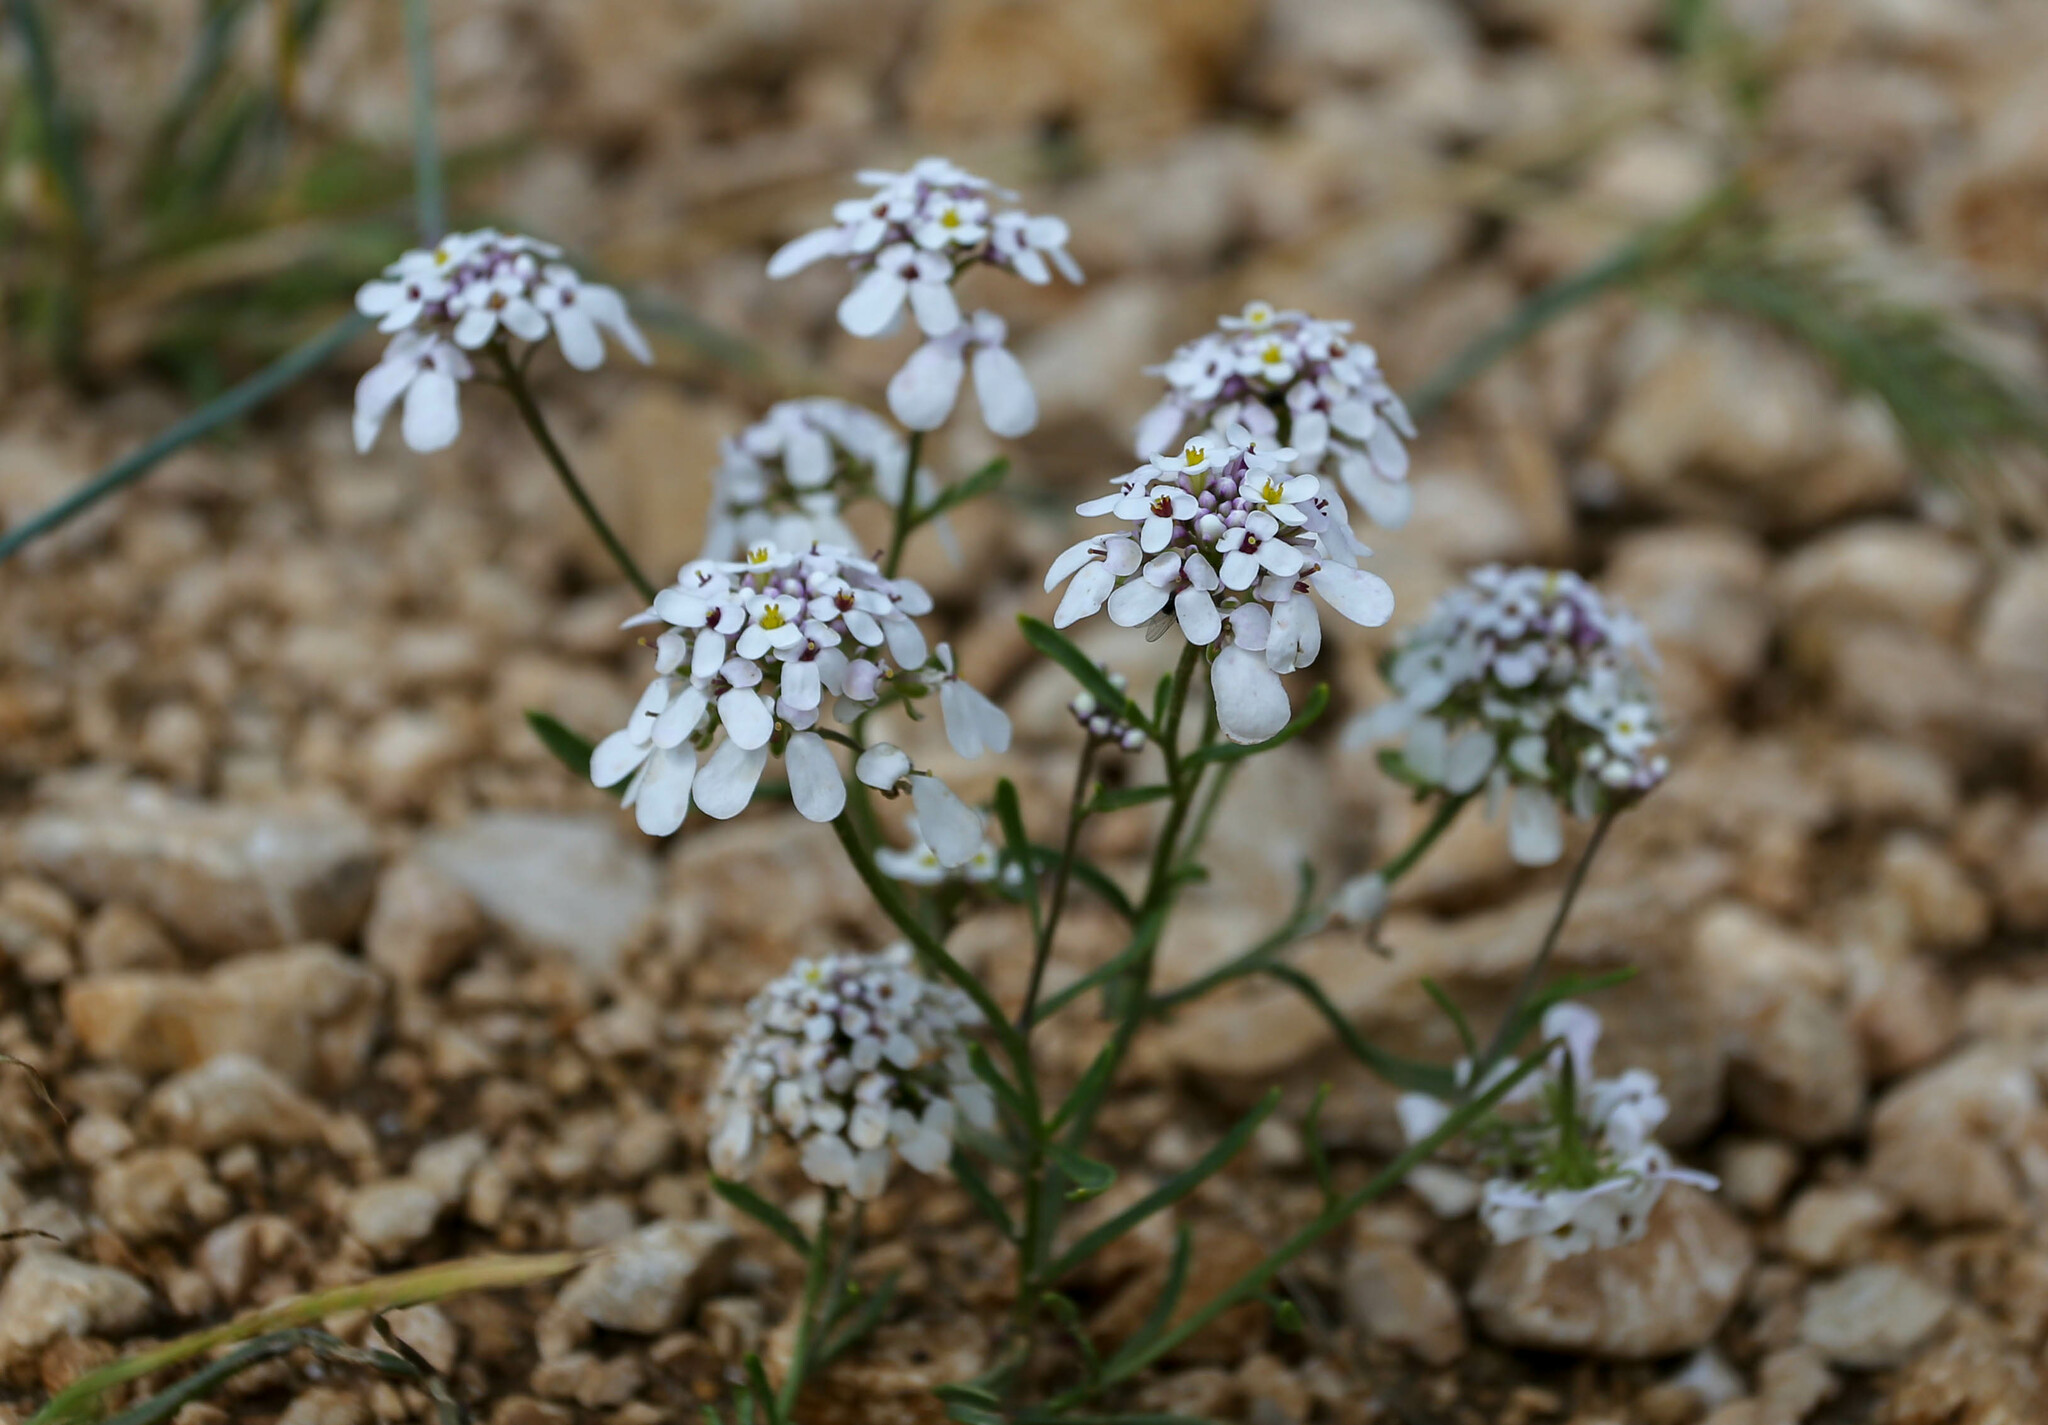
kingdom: Plantae
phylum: Tracheophyta
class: Magnoliopsida
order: Brassicales
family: Brassicaceae
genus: Iberis
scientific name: Iberis simplex
